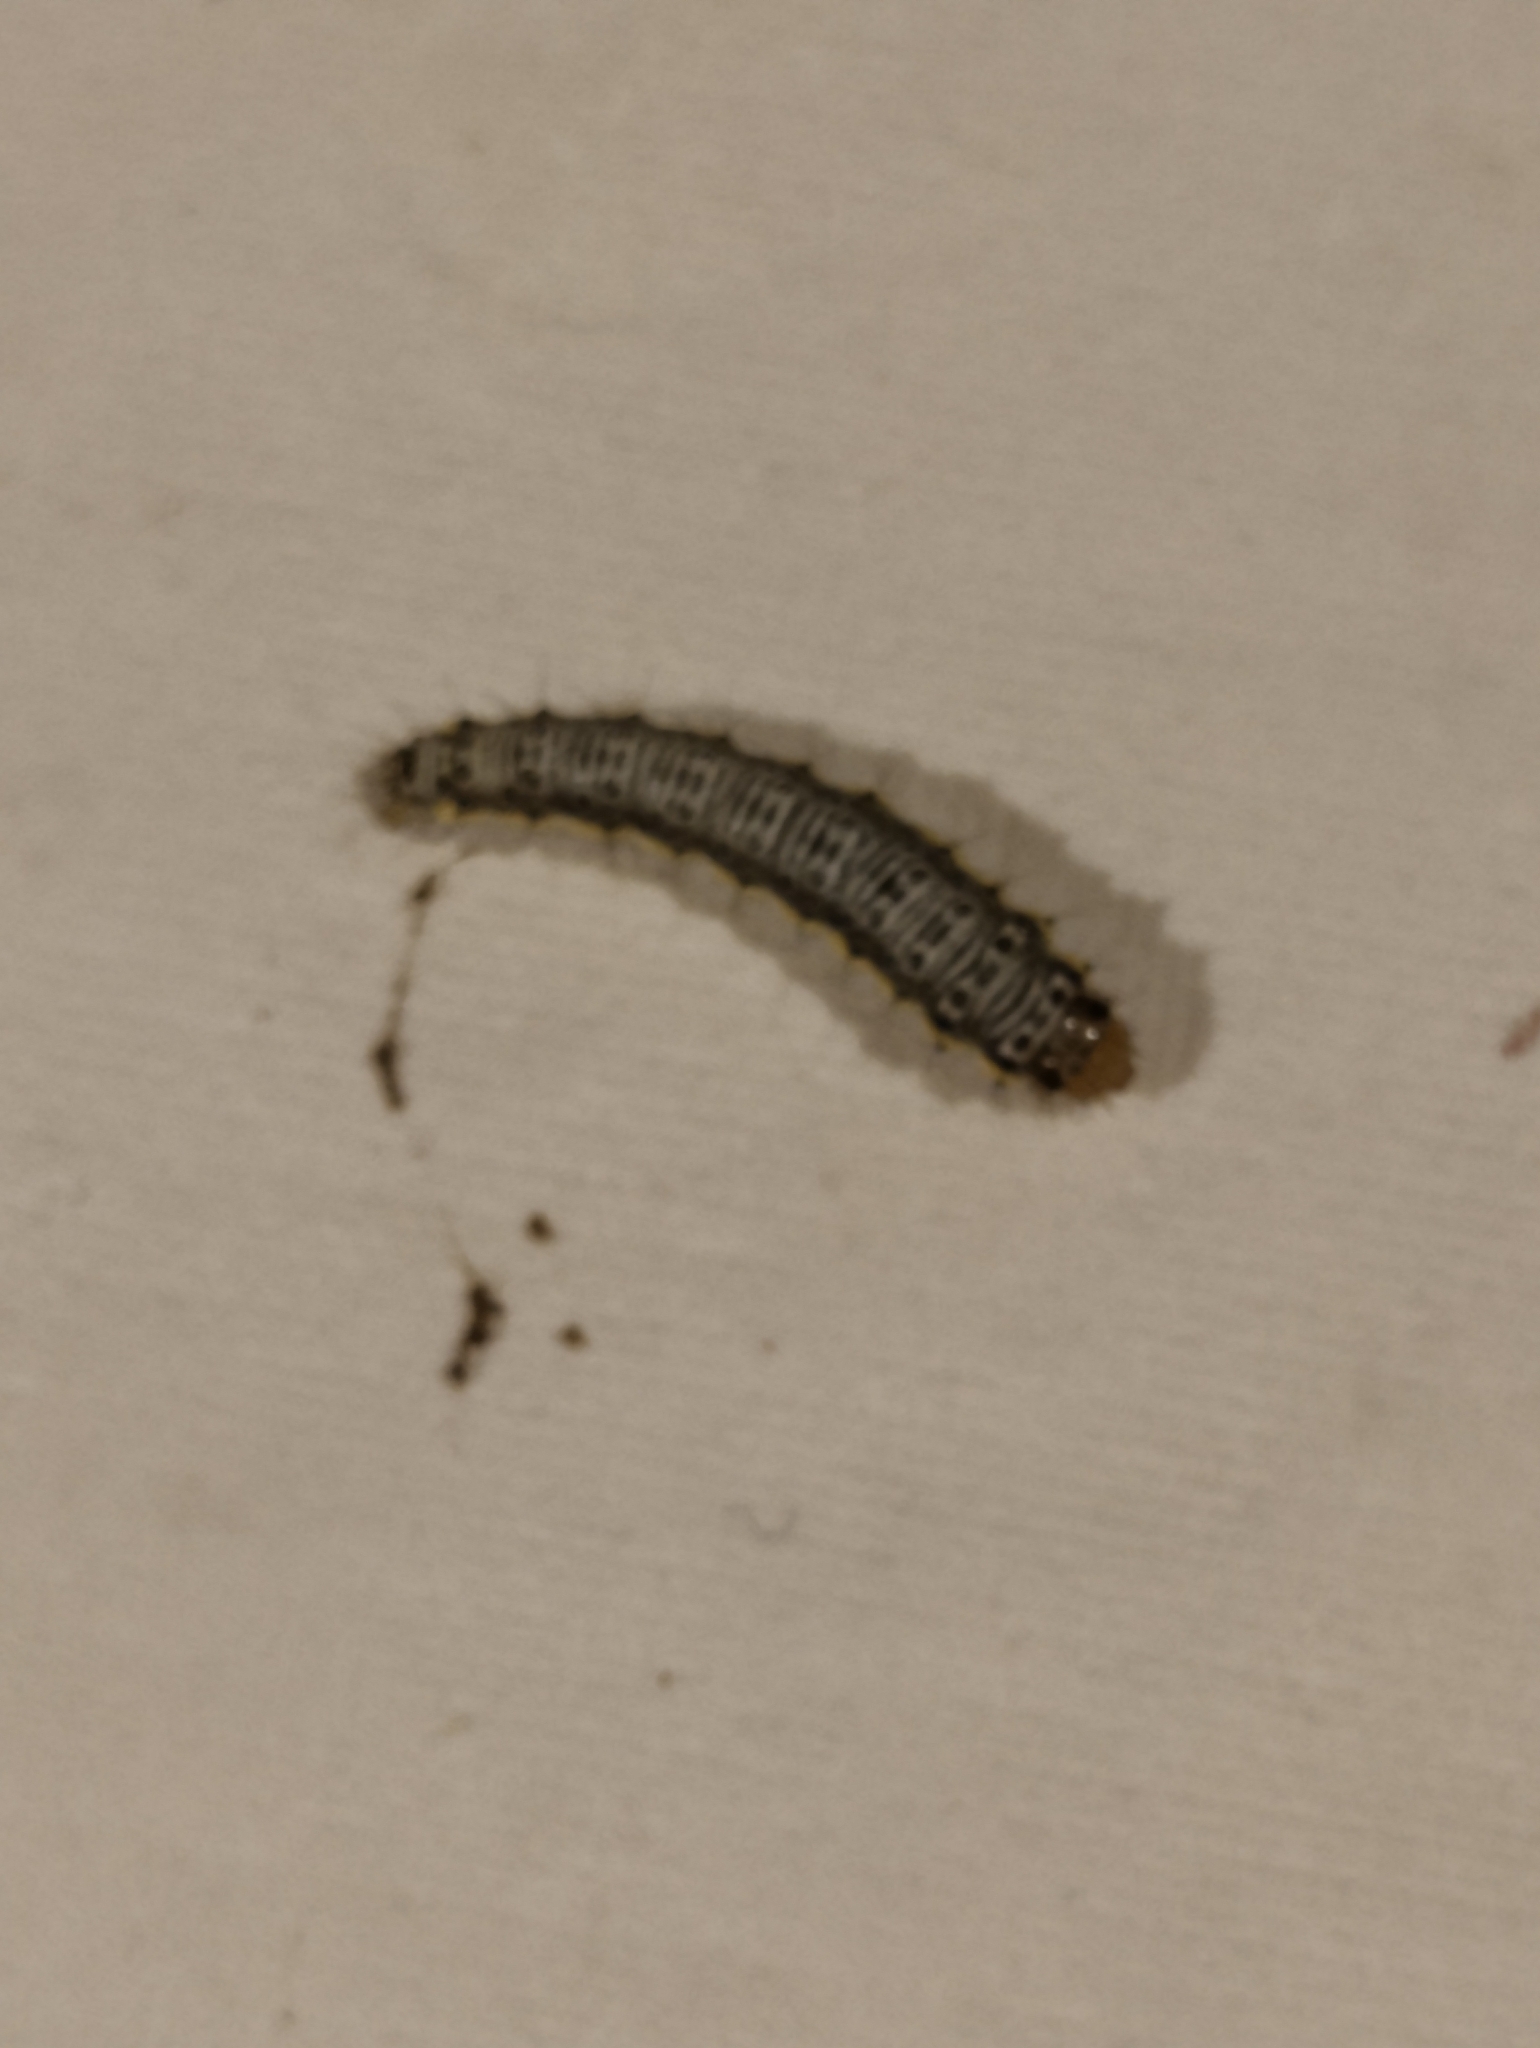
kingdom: Animalia
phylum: Arthropoda
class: Insecta
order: Lepidoptera
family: Crambidae
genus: Evergestis
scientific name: Evergestis rimosalis
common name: Cross-striped cabbageworm moth
